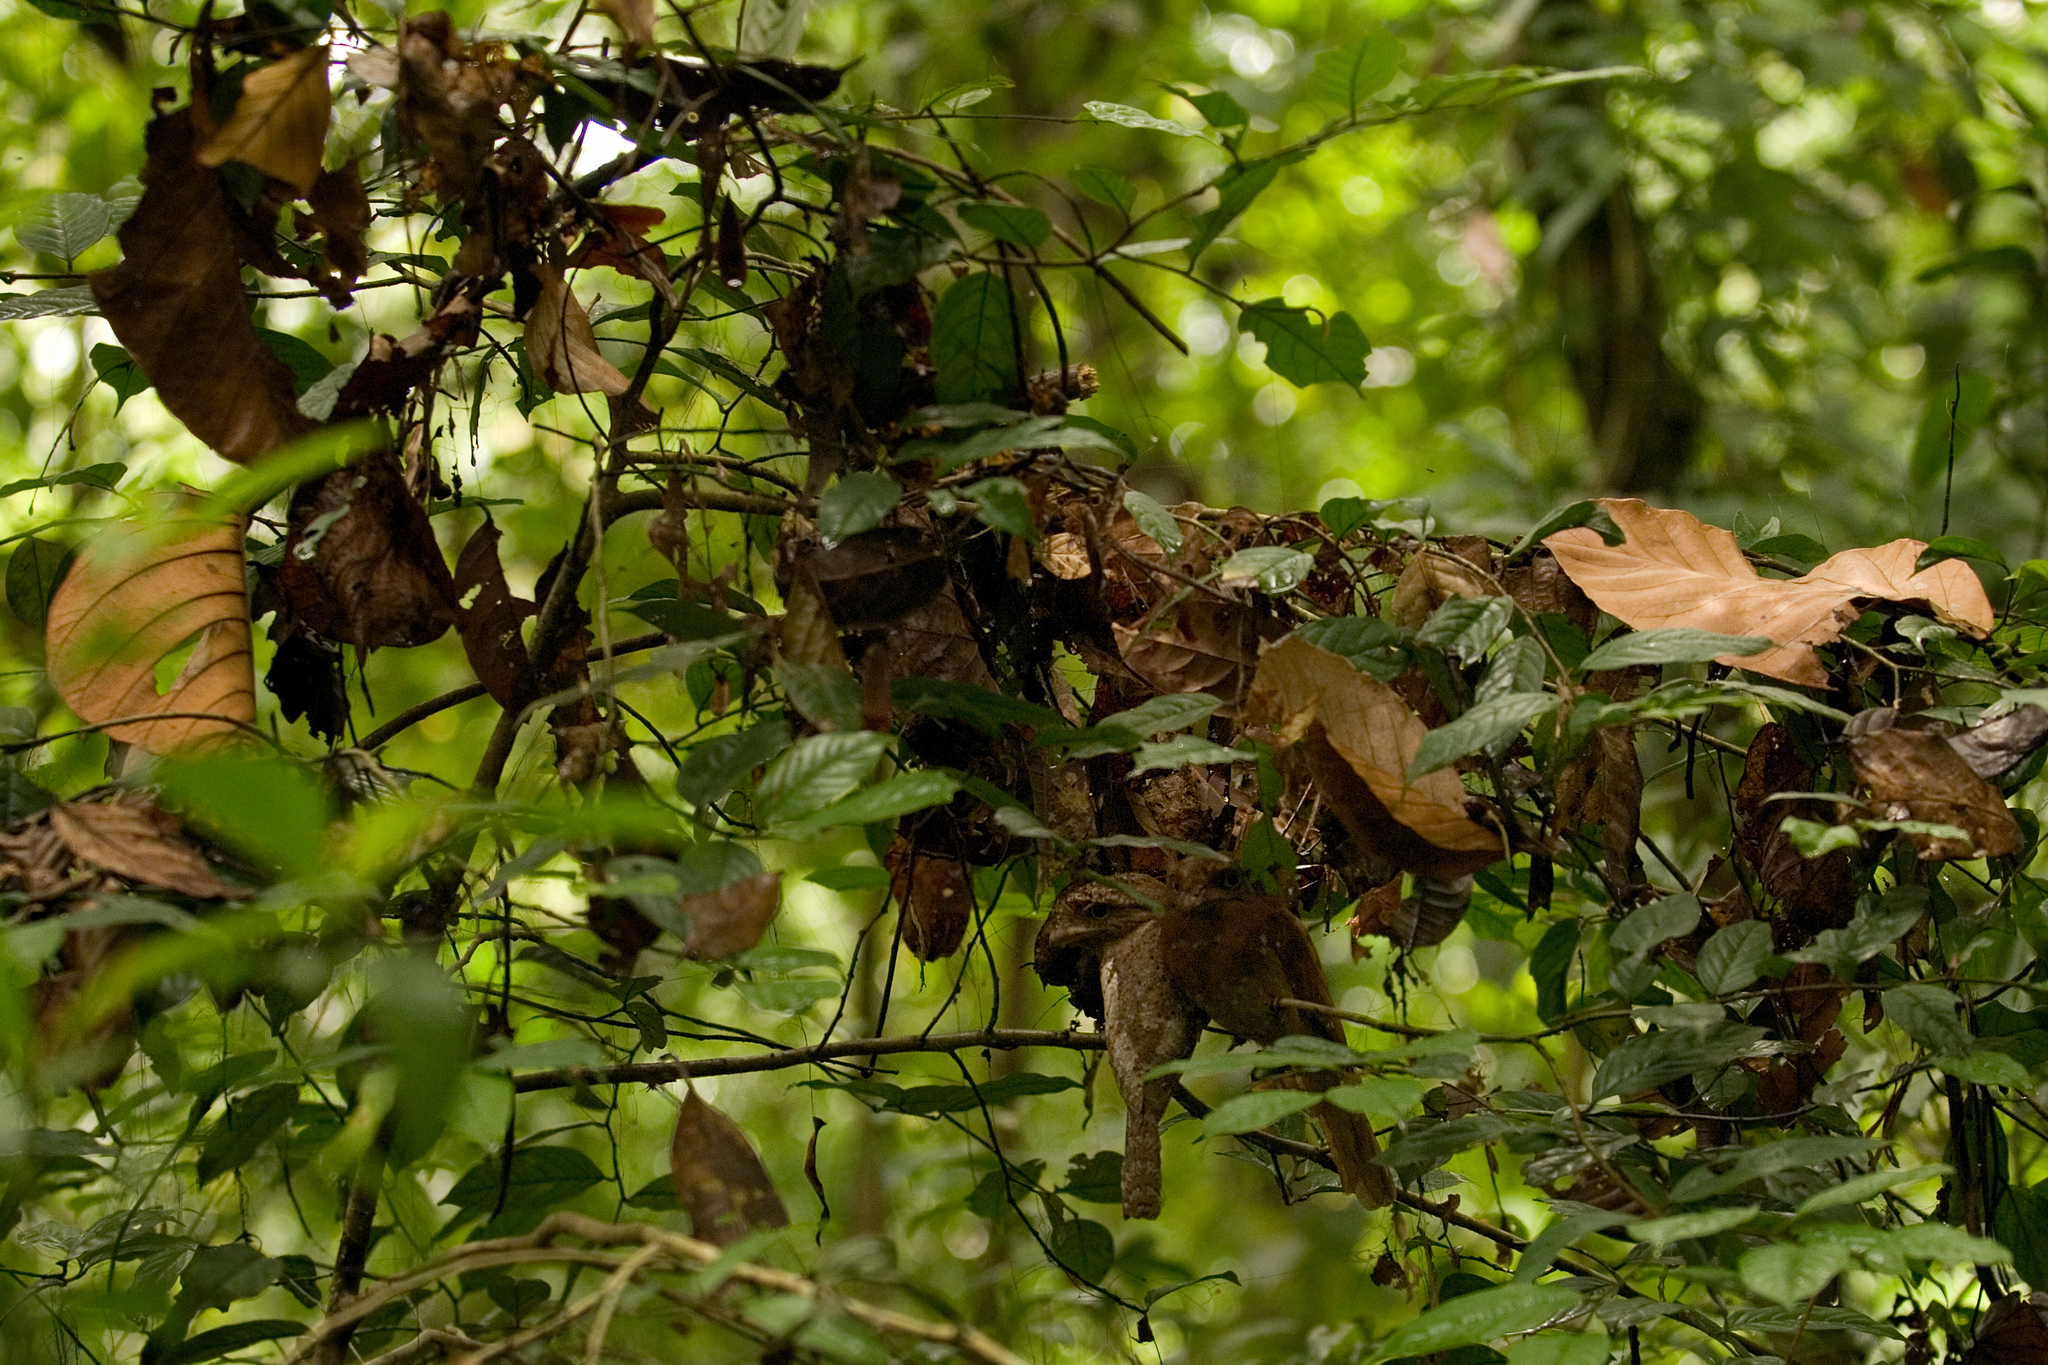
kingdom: Animalia
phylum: Chordata
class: Aves
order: Caprimulgiformes
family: Podargidae
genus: Batrachostomus
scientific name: Batrachostomus moniliger
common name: Sri lanka frogmouth
